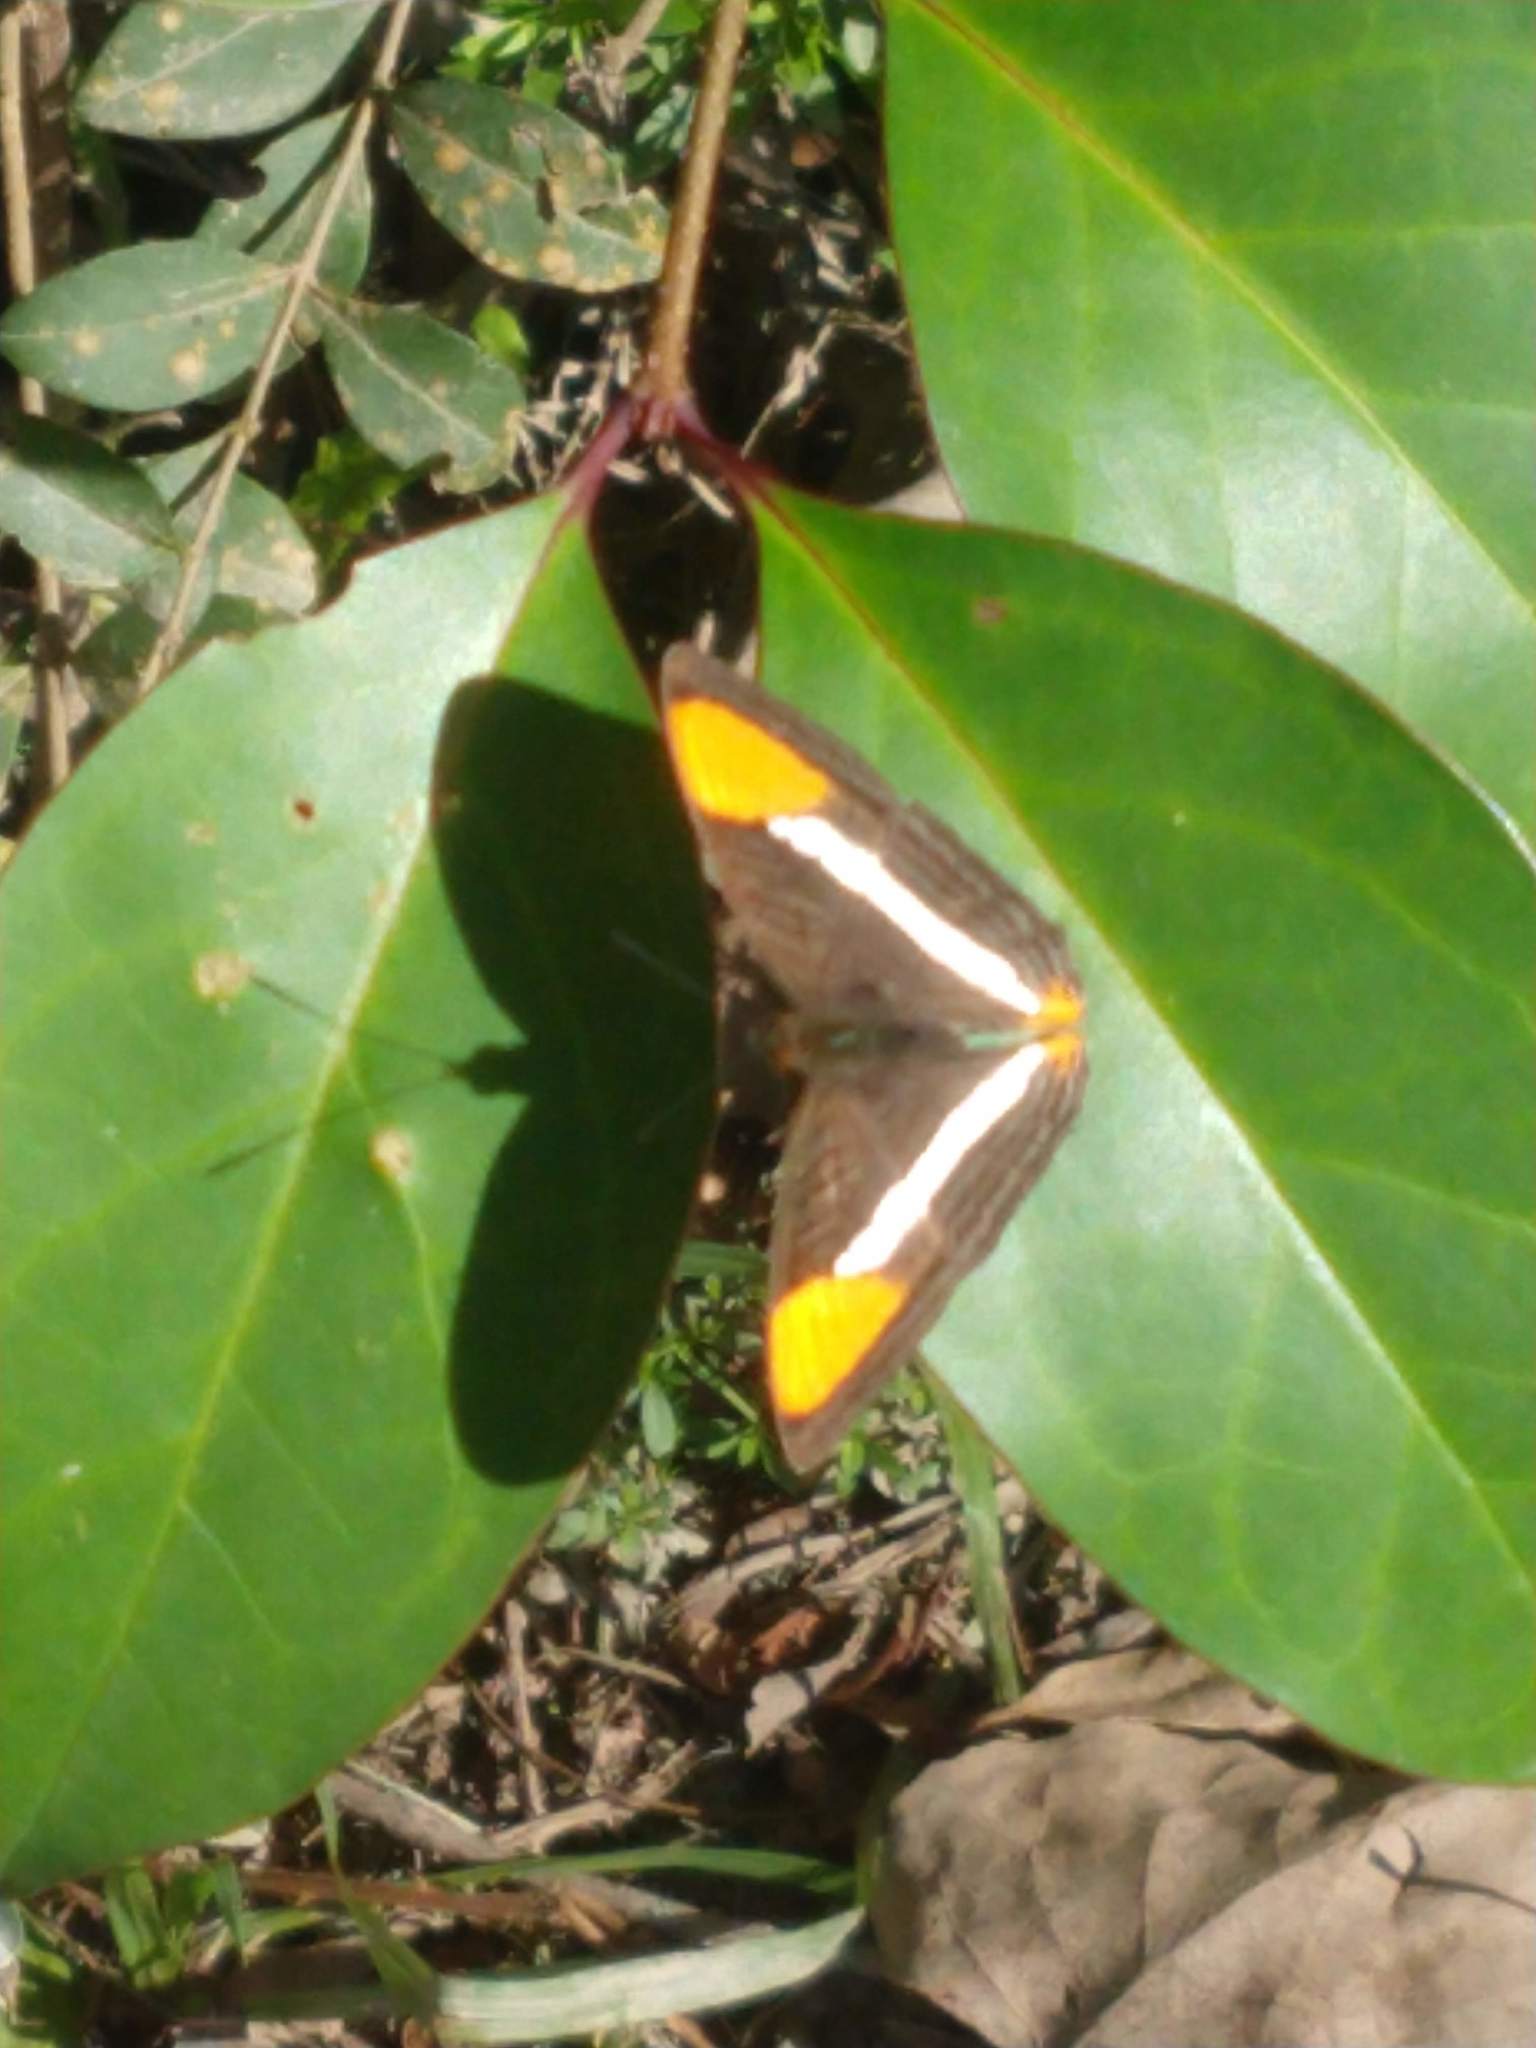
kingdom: Animalia
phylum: Arthropoda
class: Insecta
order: Lepidoptera
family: Nymphalidae
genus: Limenitis
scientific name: Limenitis syma
